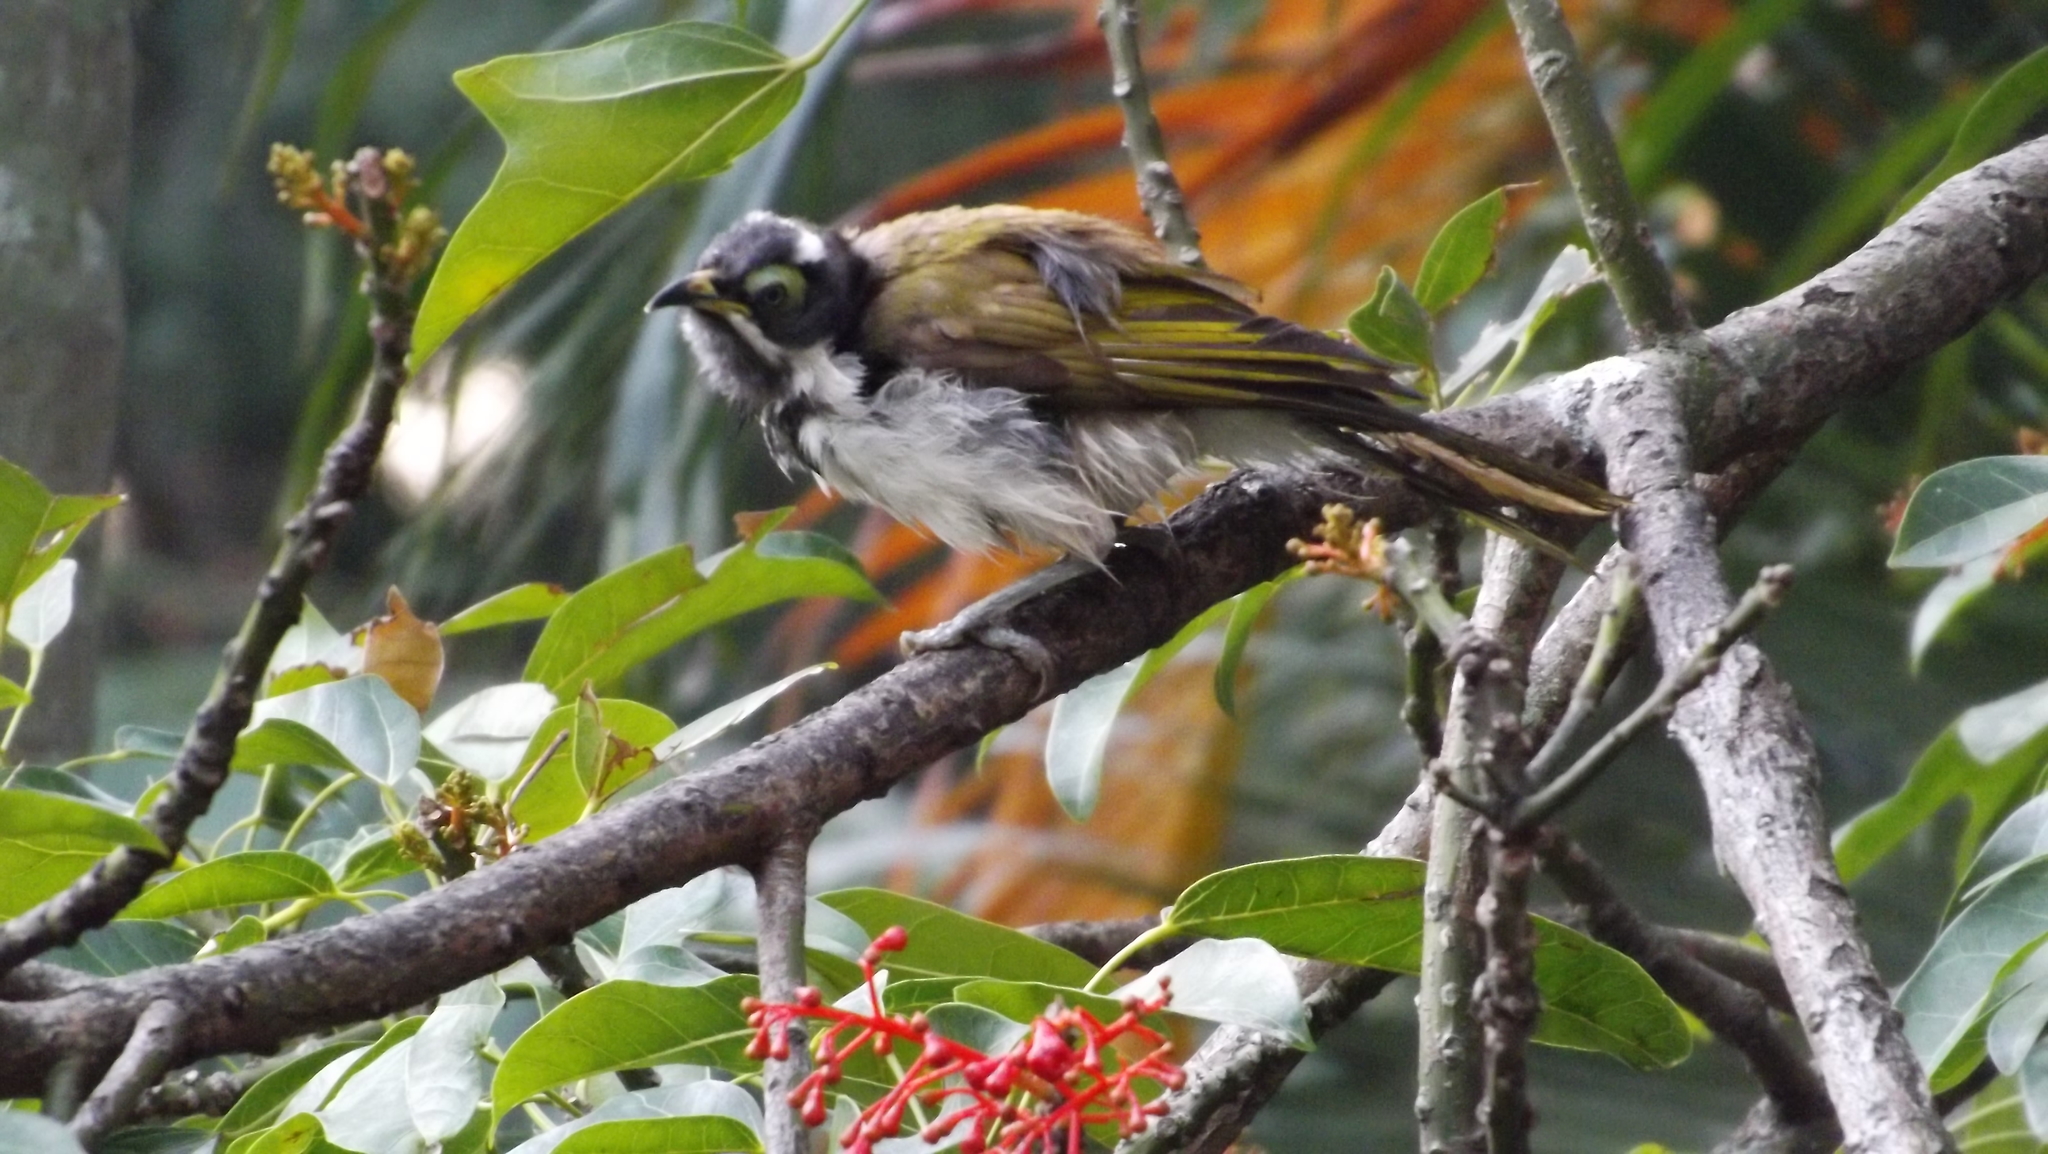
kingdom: Animalia
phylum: Chordata
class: Aves
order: Passeriformes
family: Meliphagidae
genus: Entomyzon
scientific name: Entomyzon cyanotis
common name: Blue-faced honeyeater
